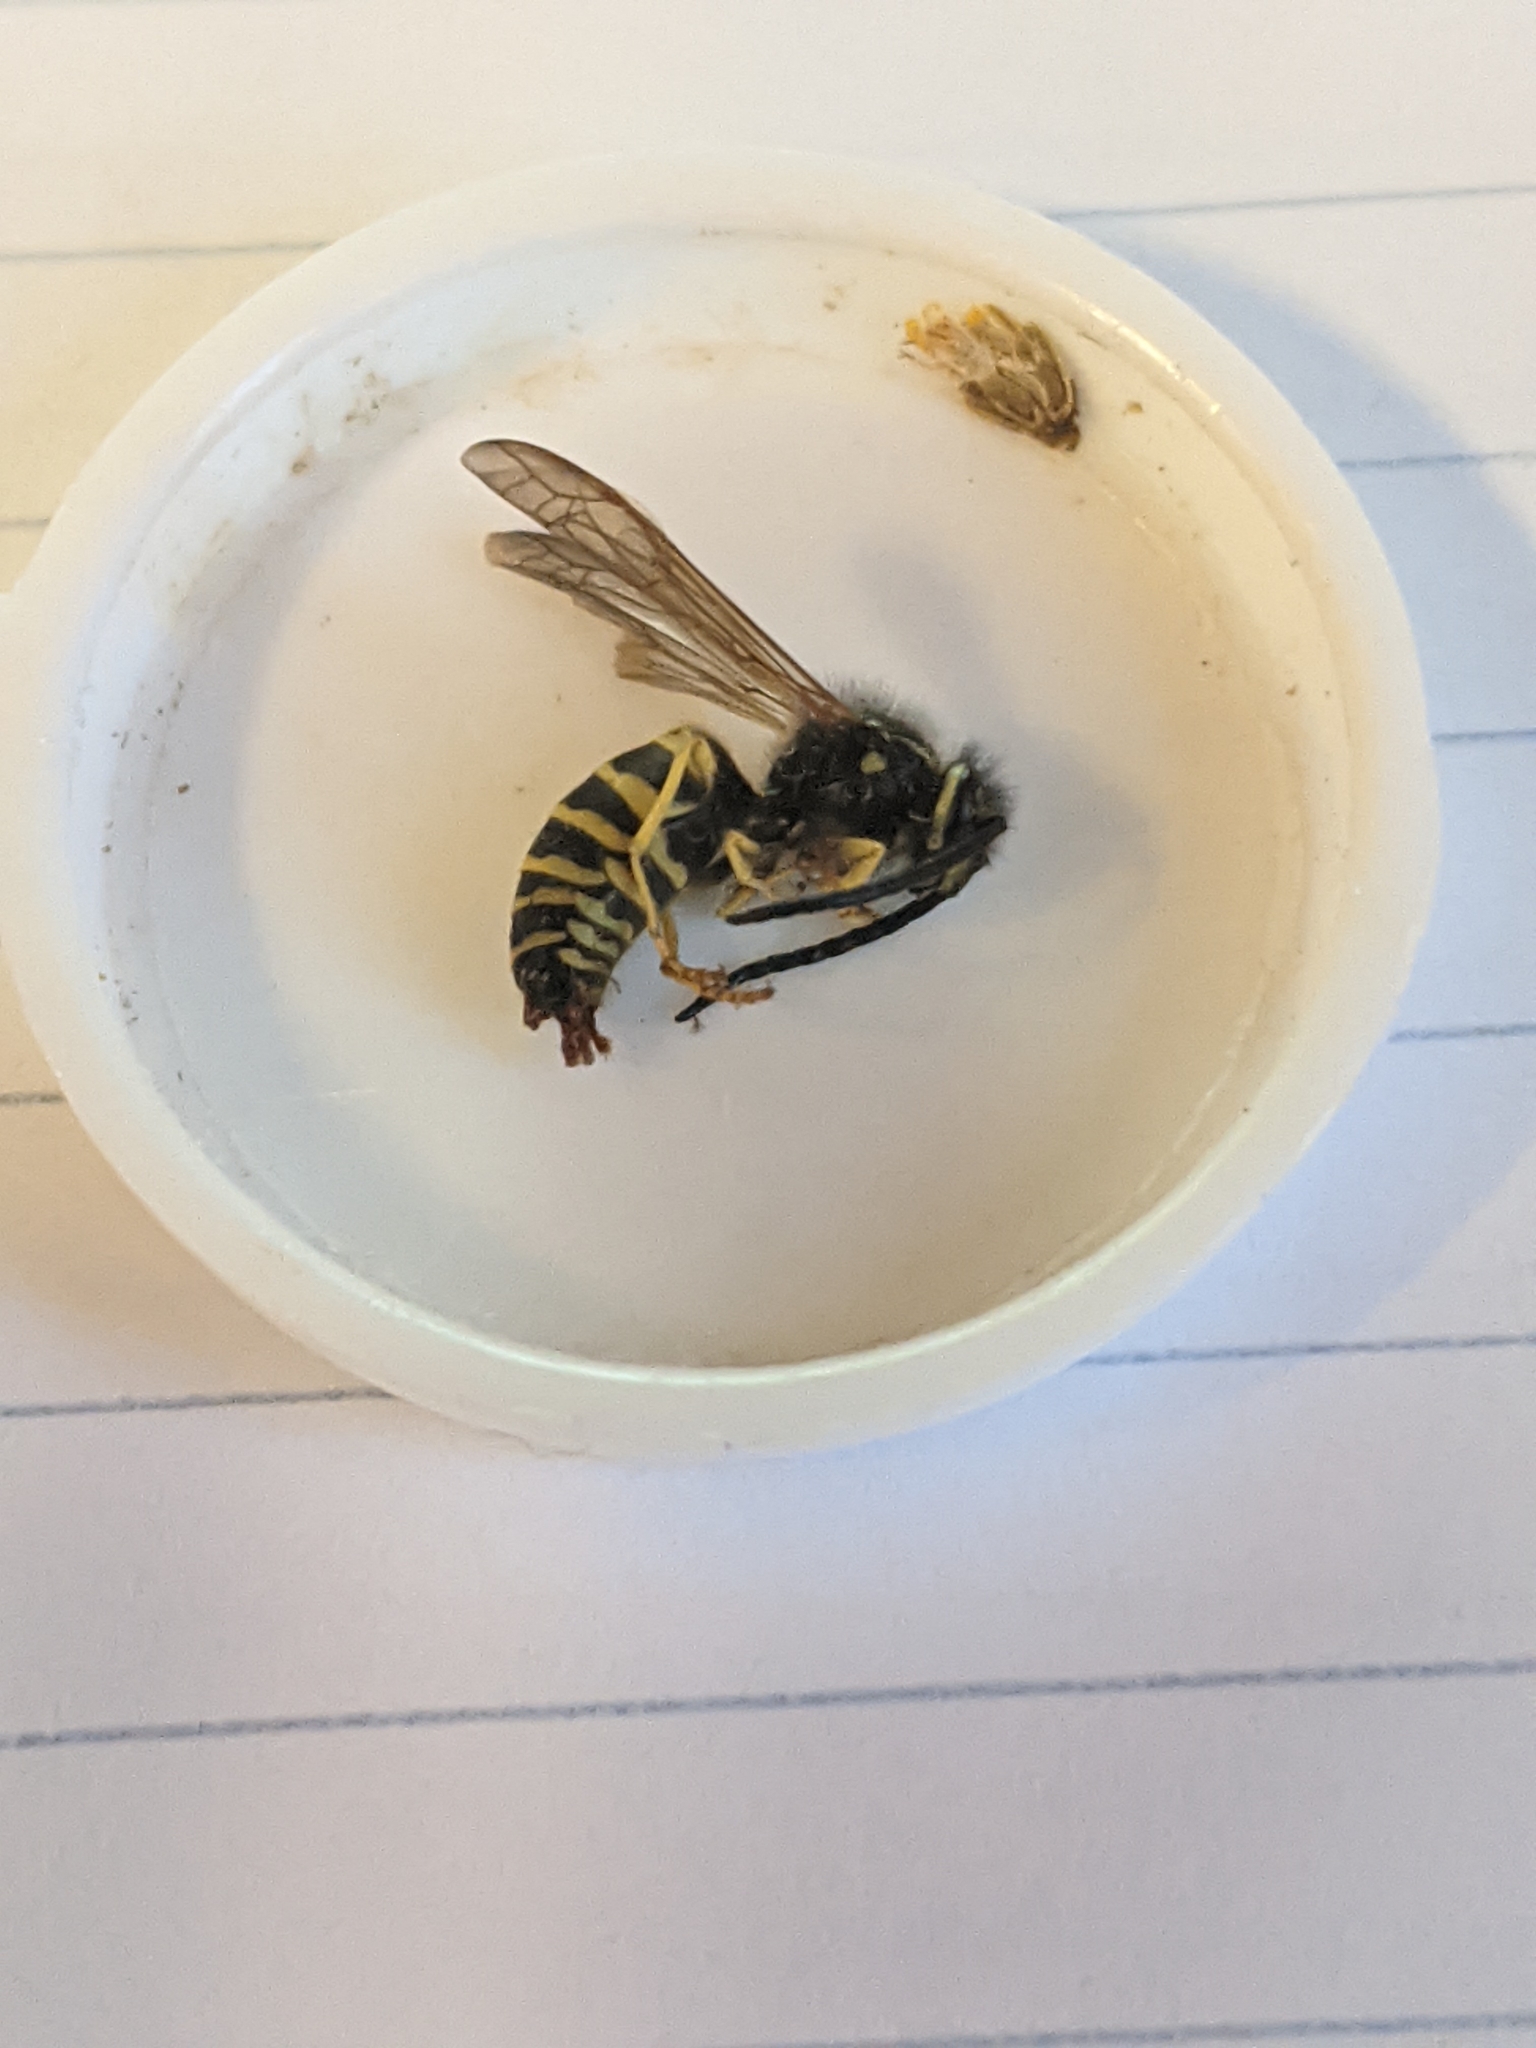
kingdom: Animalia
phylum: Arthropoda
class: Insecta
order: Hymenoptera
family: Vespidae
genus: Vespula
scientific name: Vespula
